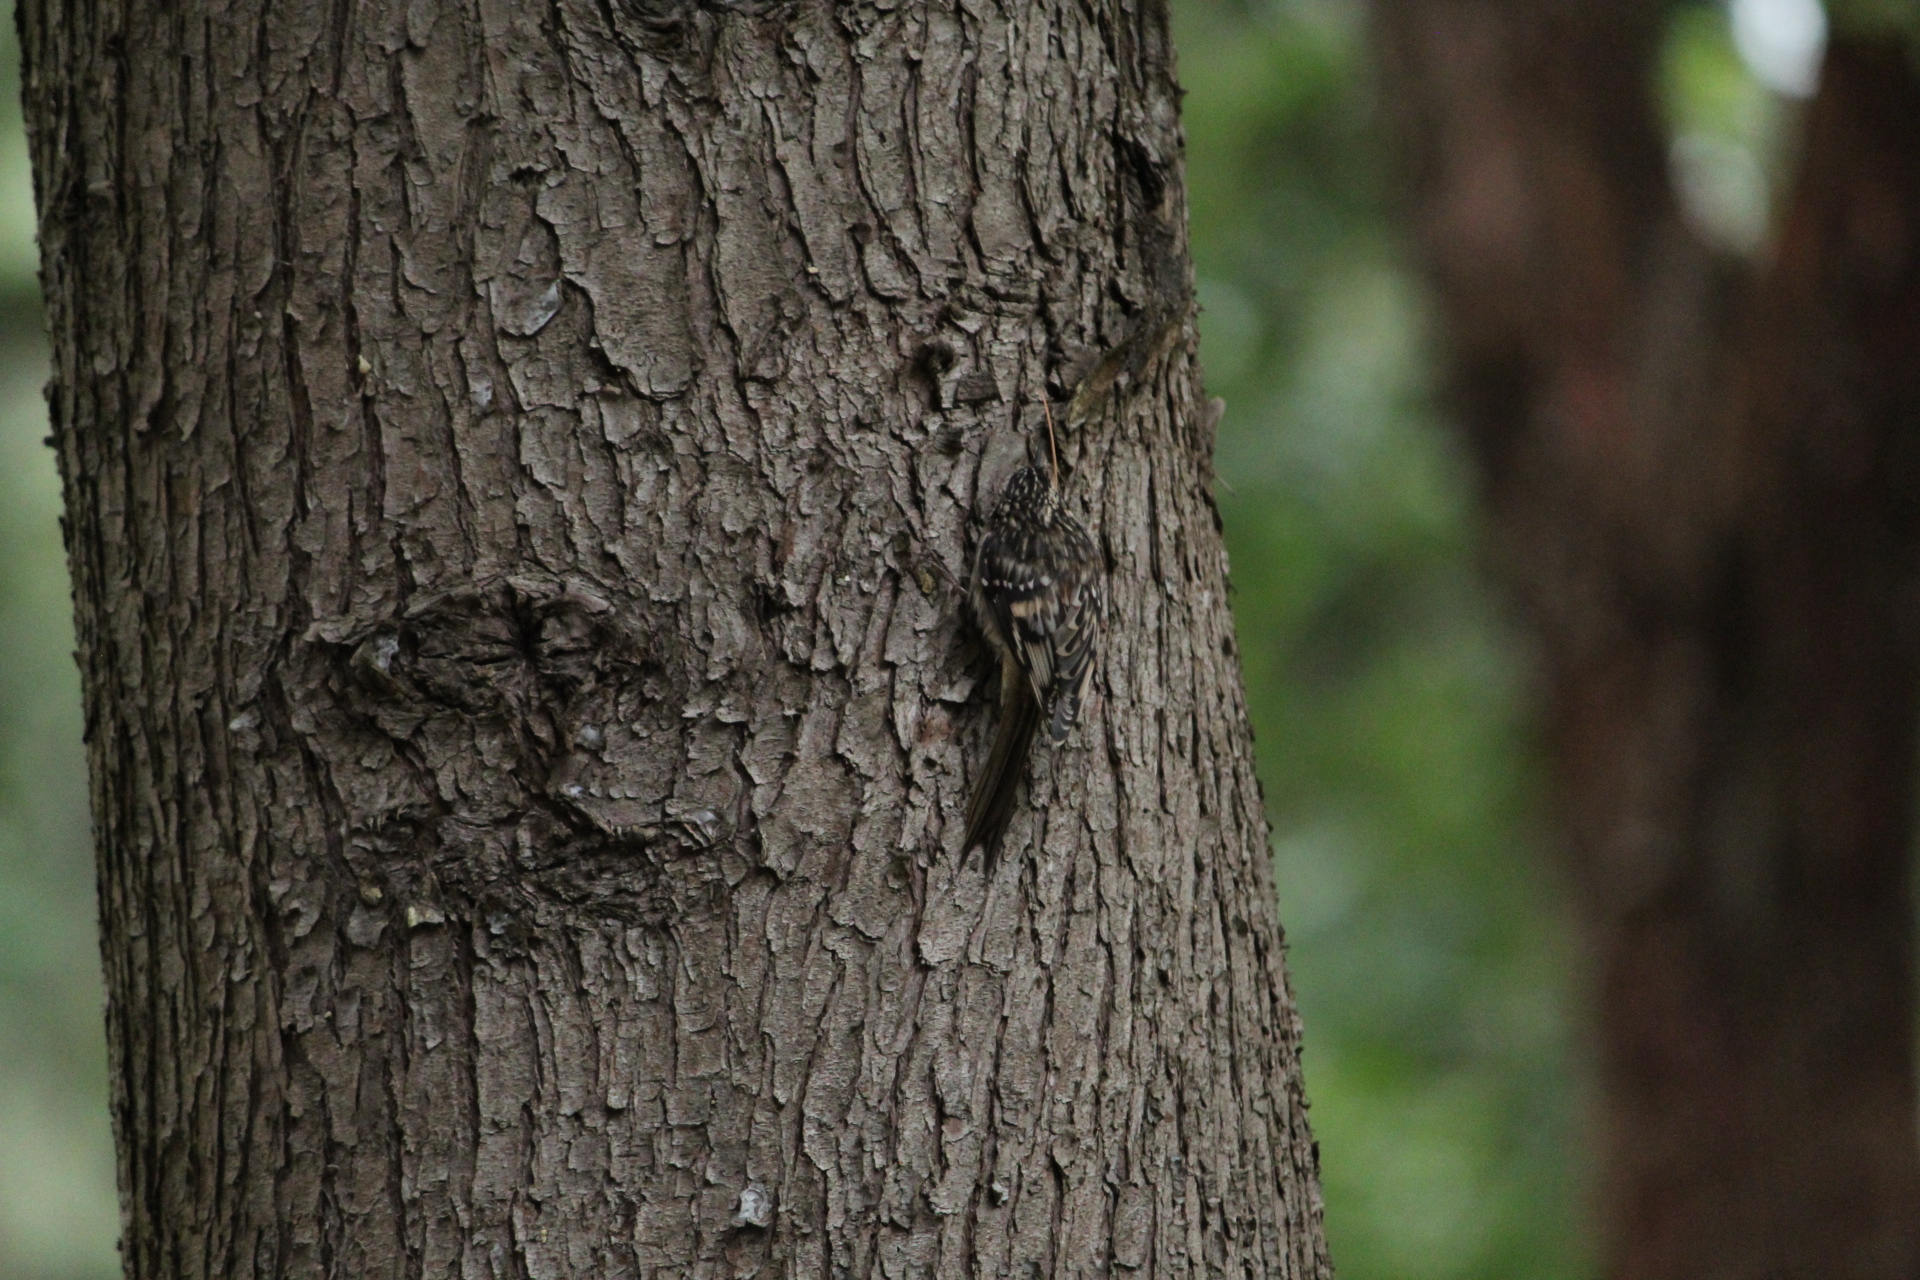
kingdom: Animalia
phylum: Chordata
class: Aves
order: Passeriformes
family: Certhiidae
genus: Certhia
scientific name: Certhia americana
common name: Brown creeper
